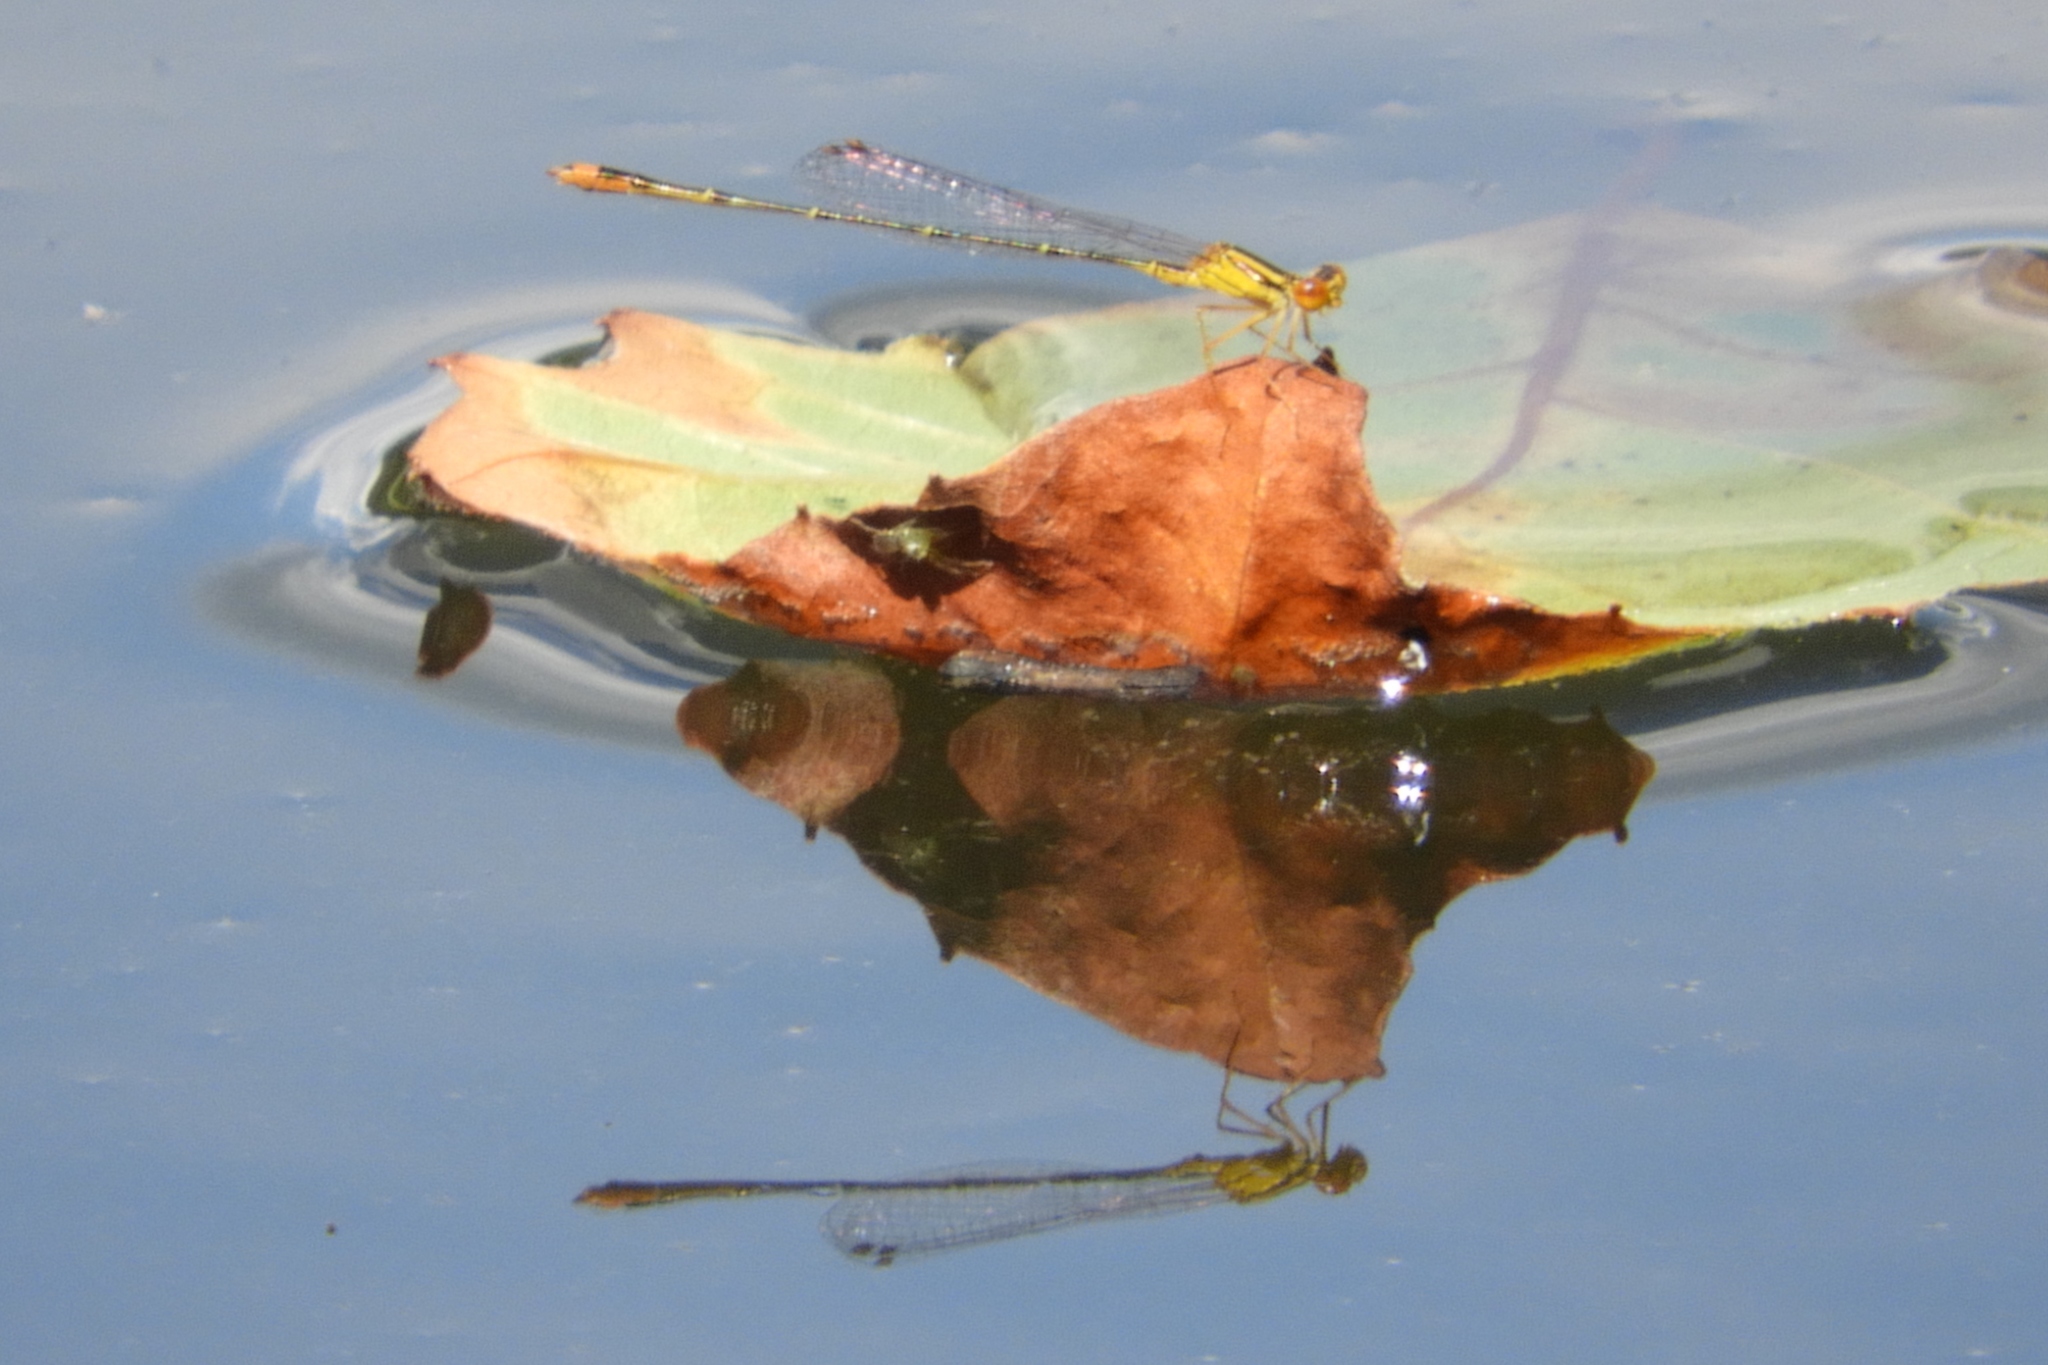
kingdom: Animalia
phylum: Arthropoda
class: Insecta
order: Odonata
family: Coenagrionidae
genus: Enallagma
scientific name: Enallagma signatum
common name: Orange bluet
